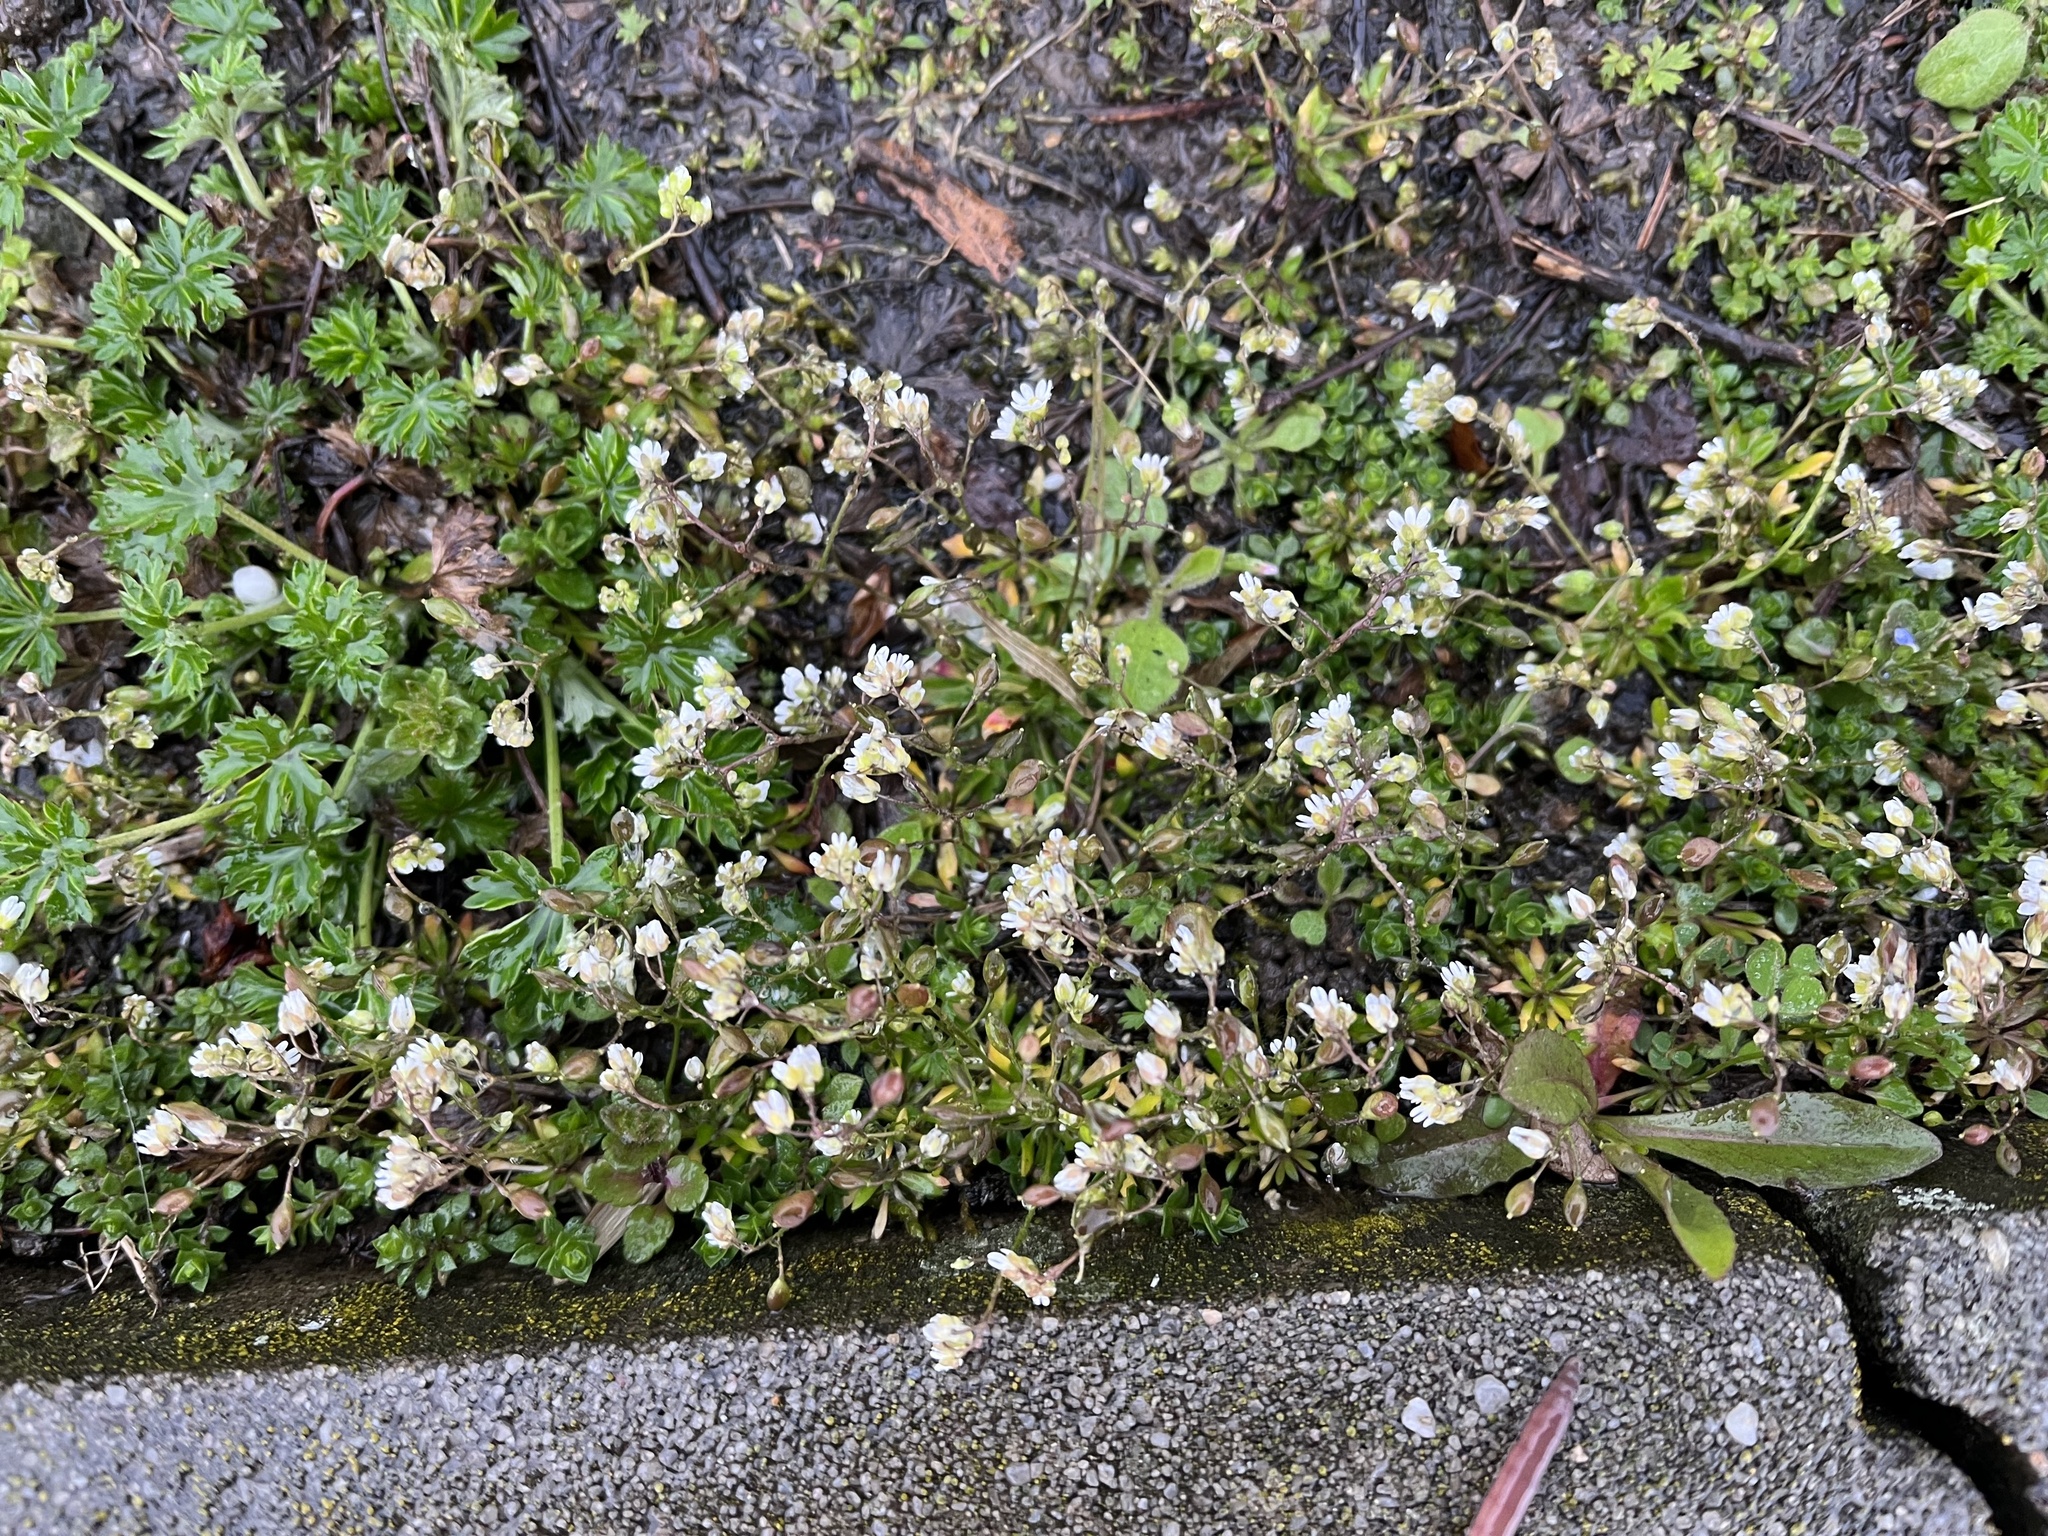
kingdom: Plantae
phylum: Tracheophyta
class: Magnoliopsida
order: Brassicales
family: Brassicaceae
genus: Draba
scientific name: Draba verna
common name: Spring draba
